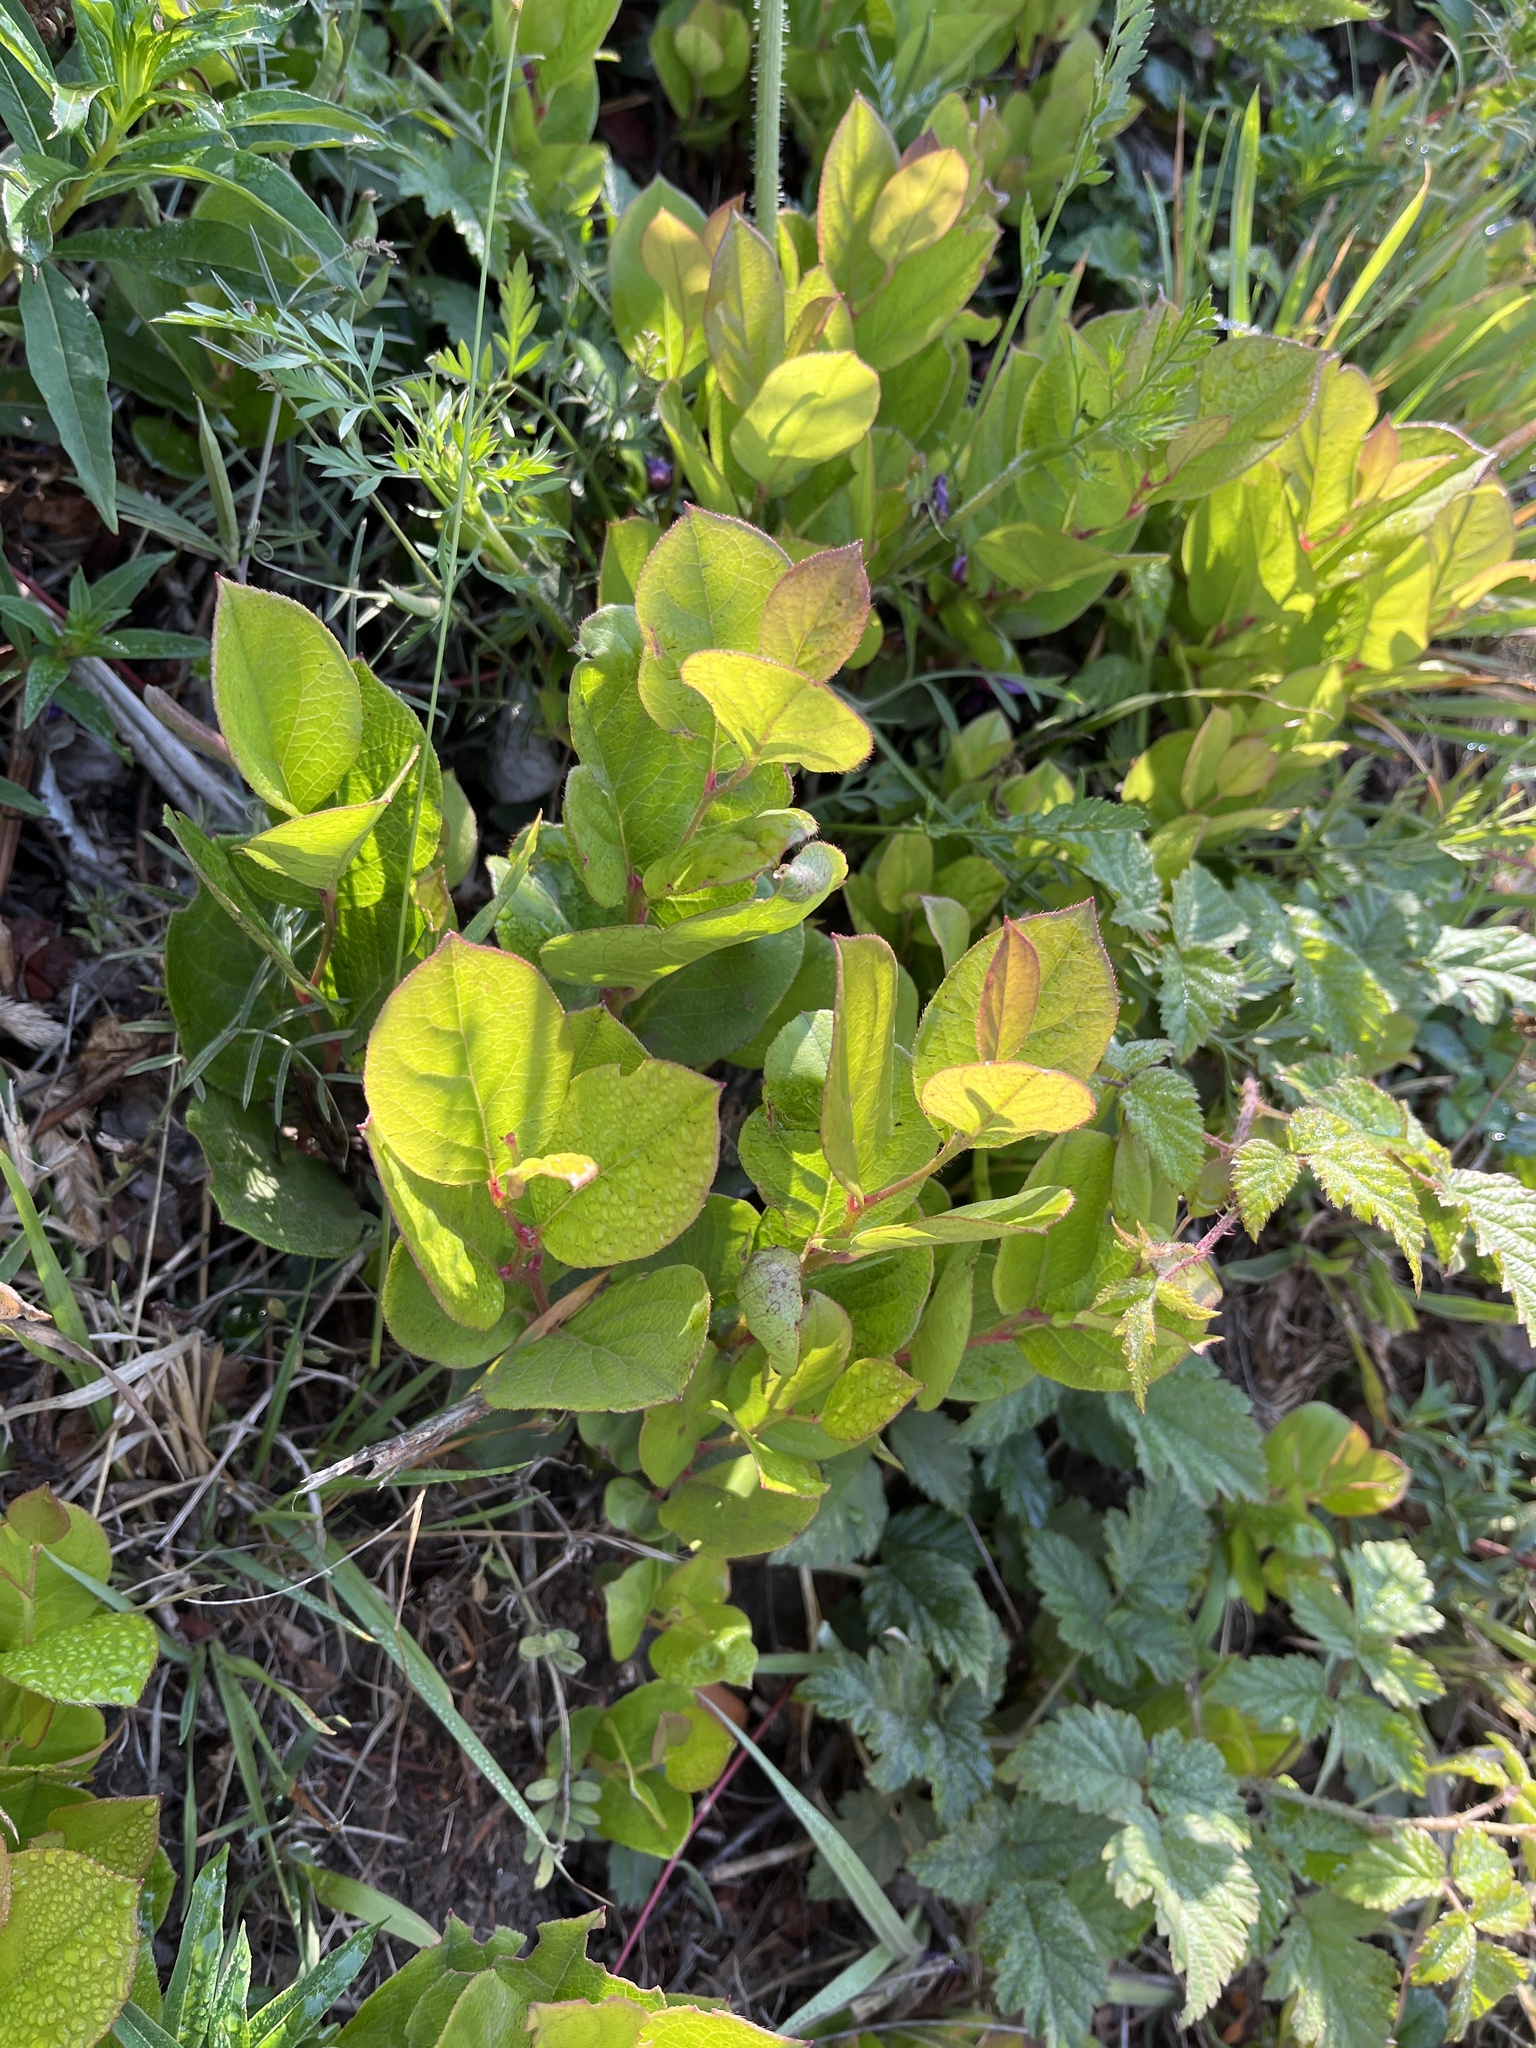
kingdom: Plantae
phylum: Tracheophyta
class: Magnoliopsida
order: Ericales
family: Ericaceae
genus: Gaultheria
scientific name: Gaultheria shallon
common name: Shallon
